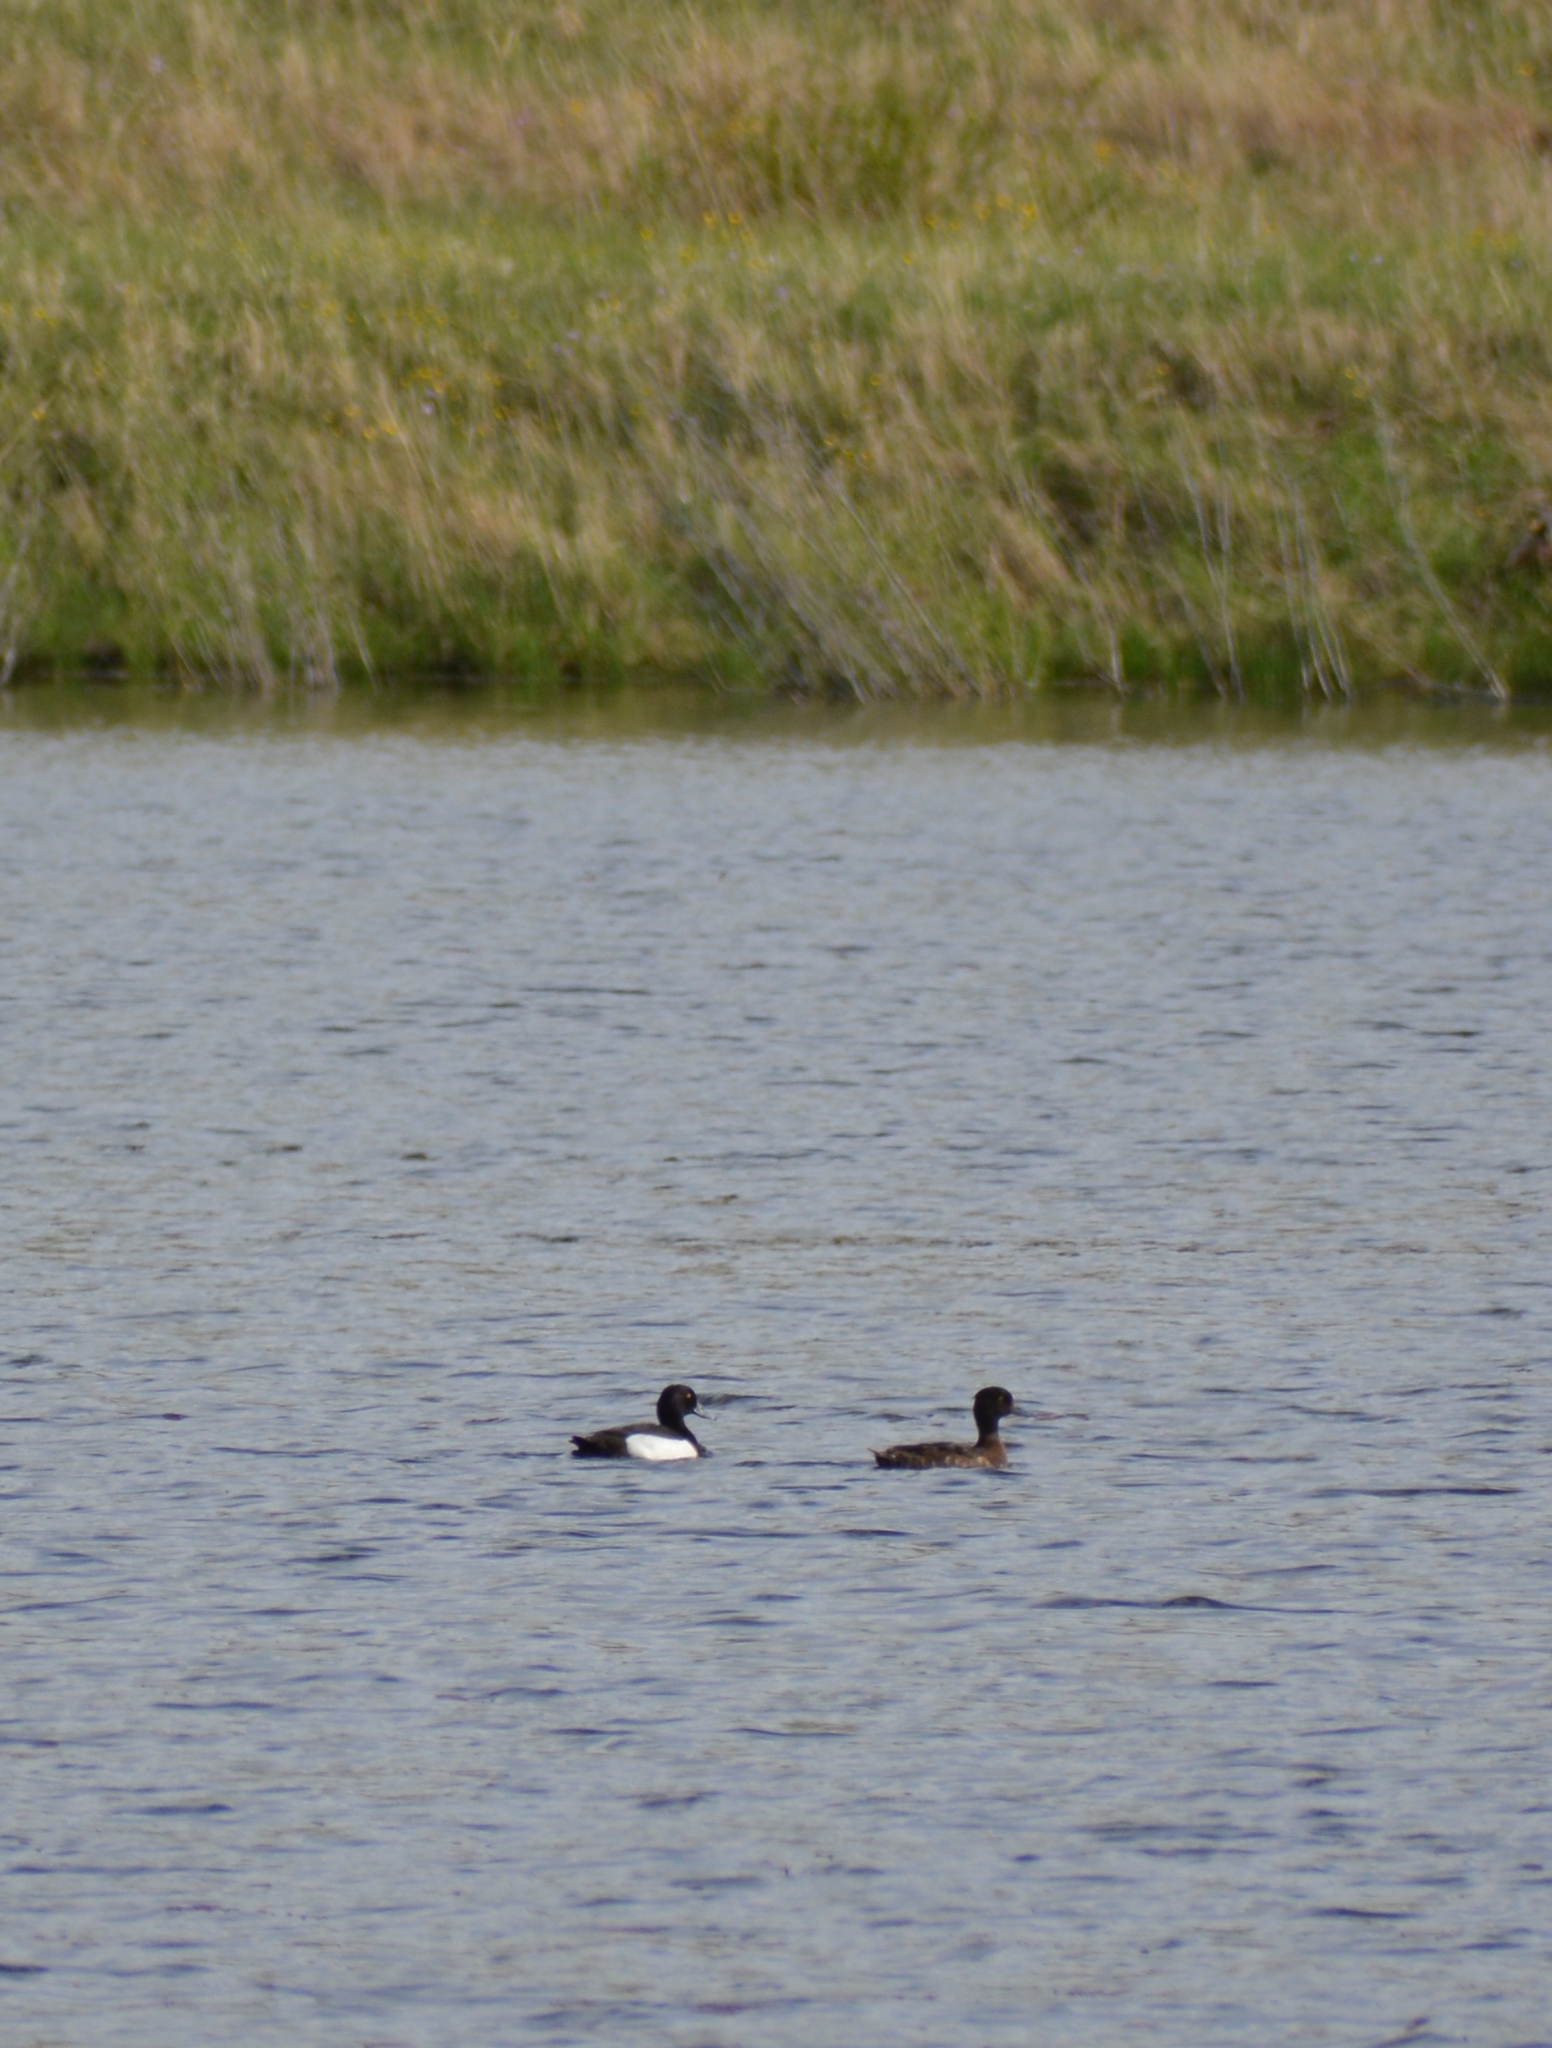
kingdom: Animalia
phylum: Chordata
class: Aves
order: Anseriformes
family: Anatidae
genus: Aythya
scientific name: Aythya fuligula
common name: Tufted duck
